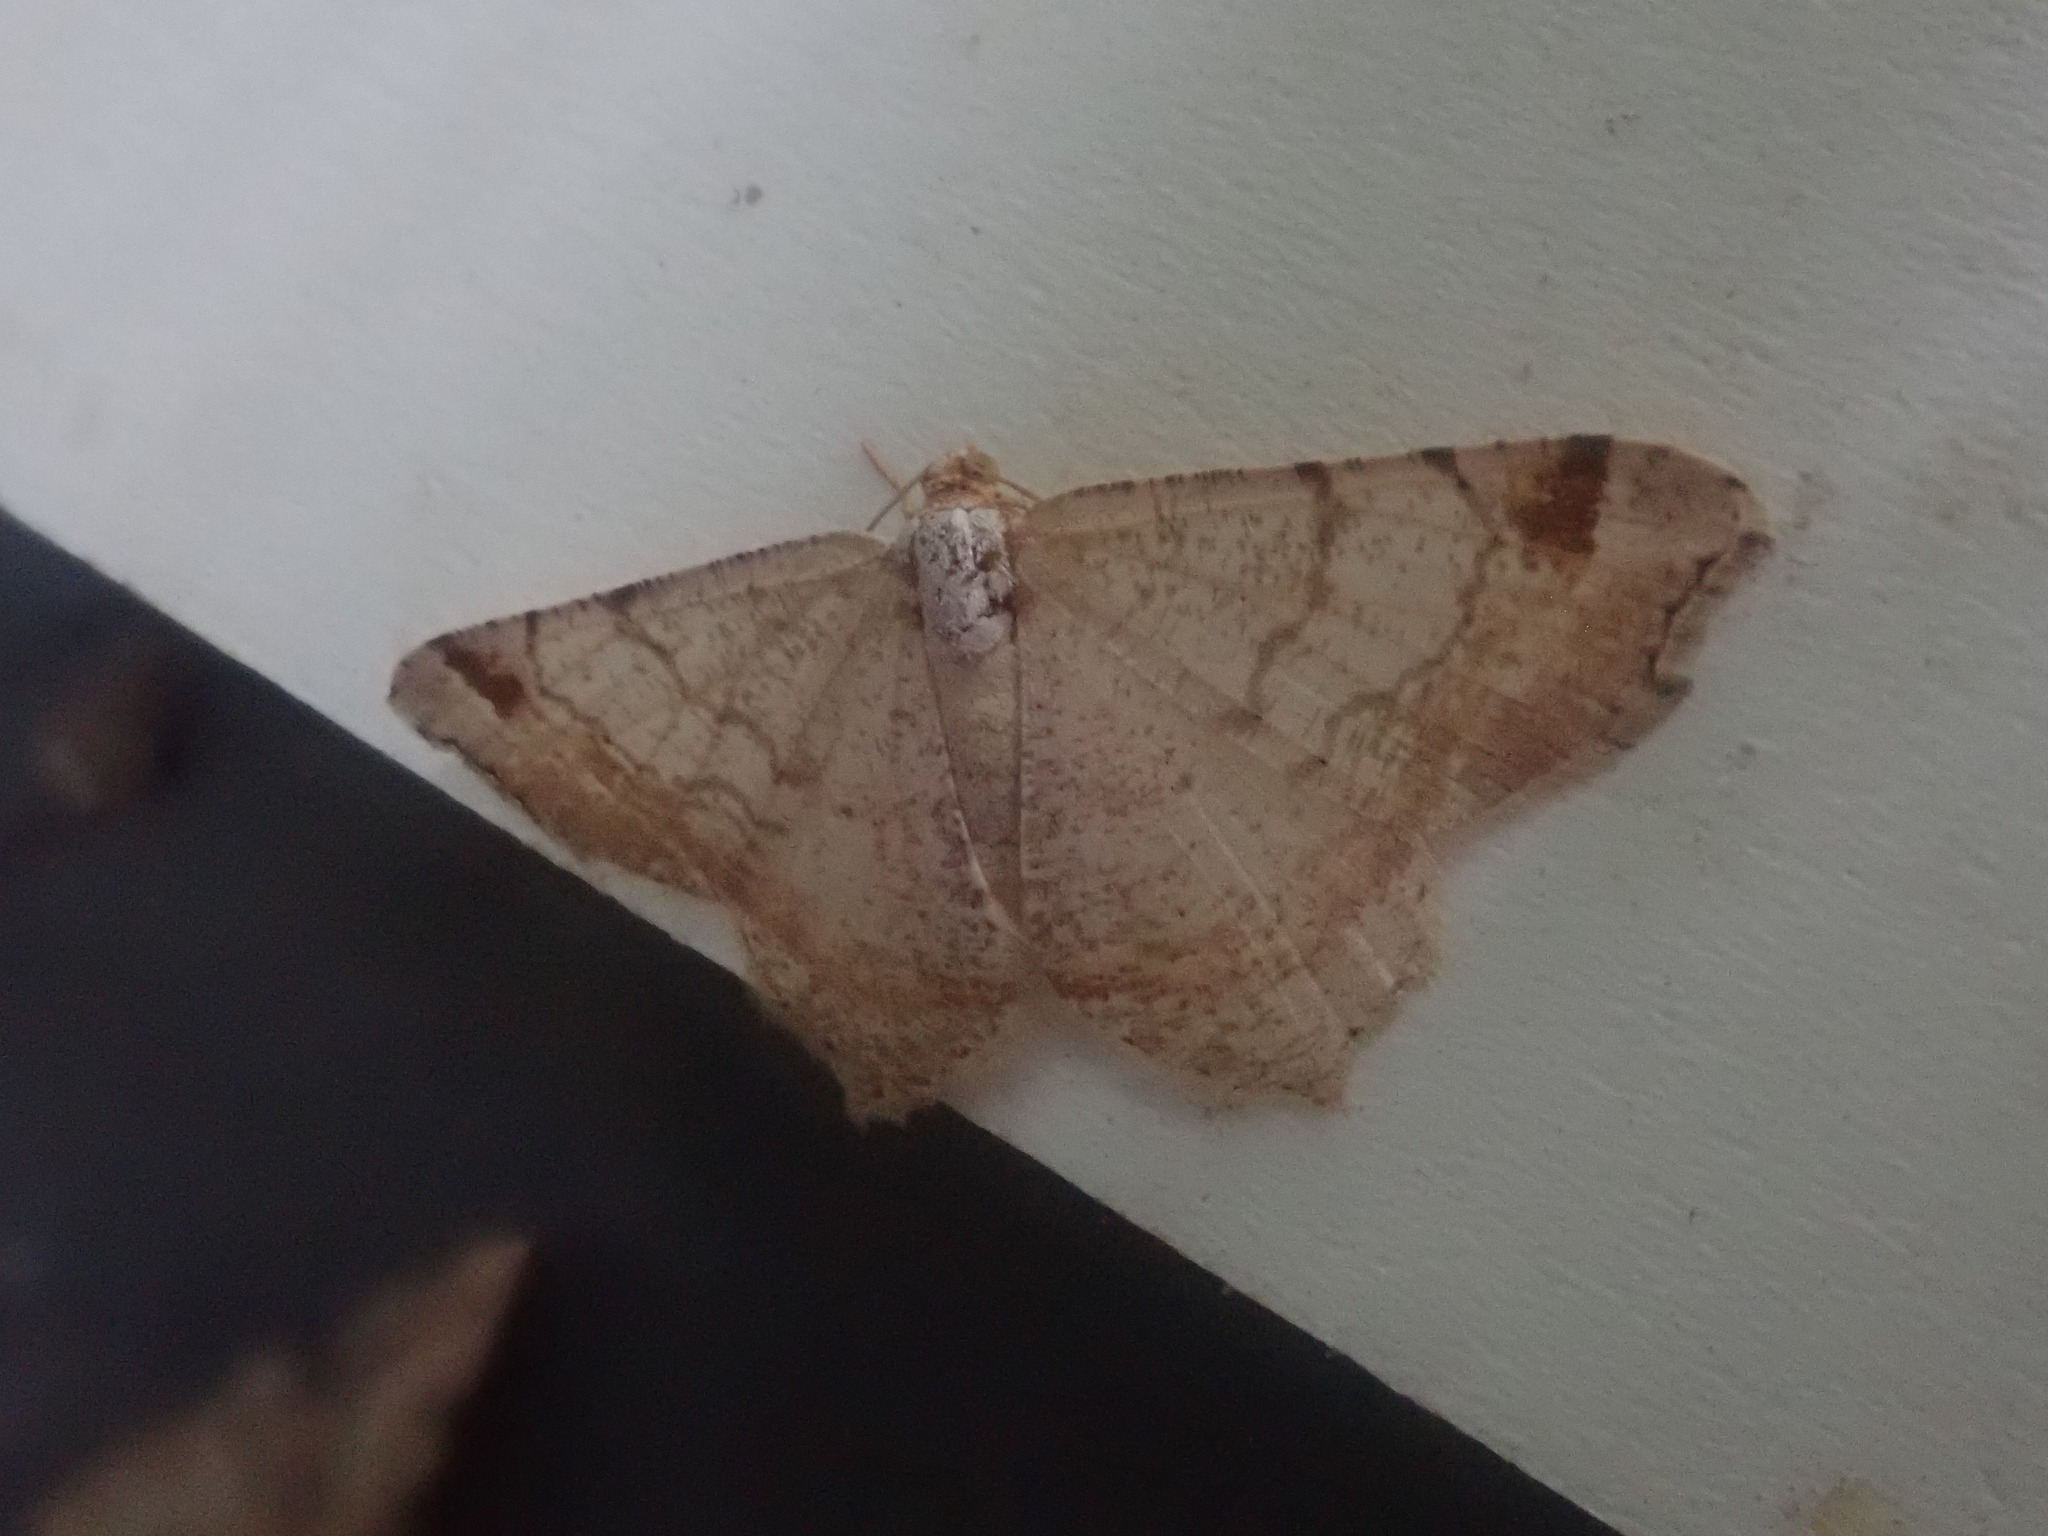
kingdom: Animalia
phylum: Arthropoda
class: Insecta
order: Lepidoptera
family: Geometridae
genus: Macaria
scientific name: Macaria bisignata
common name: Red-headed inchworm
